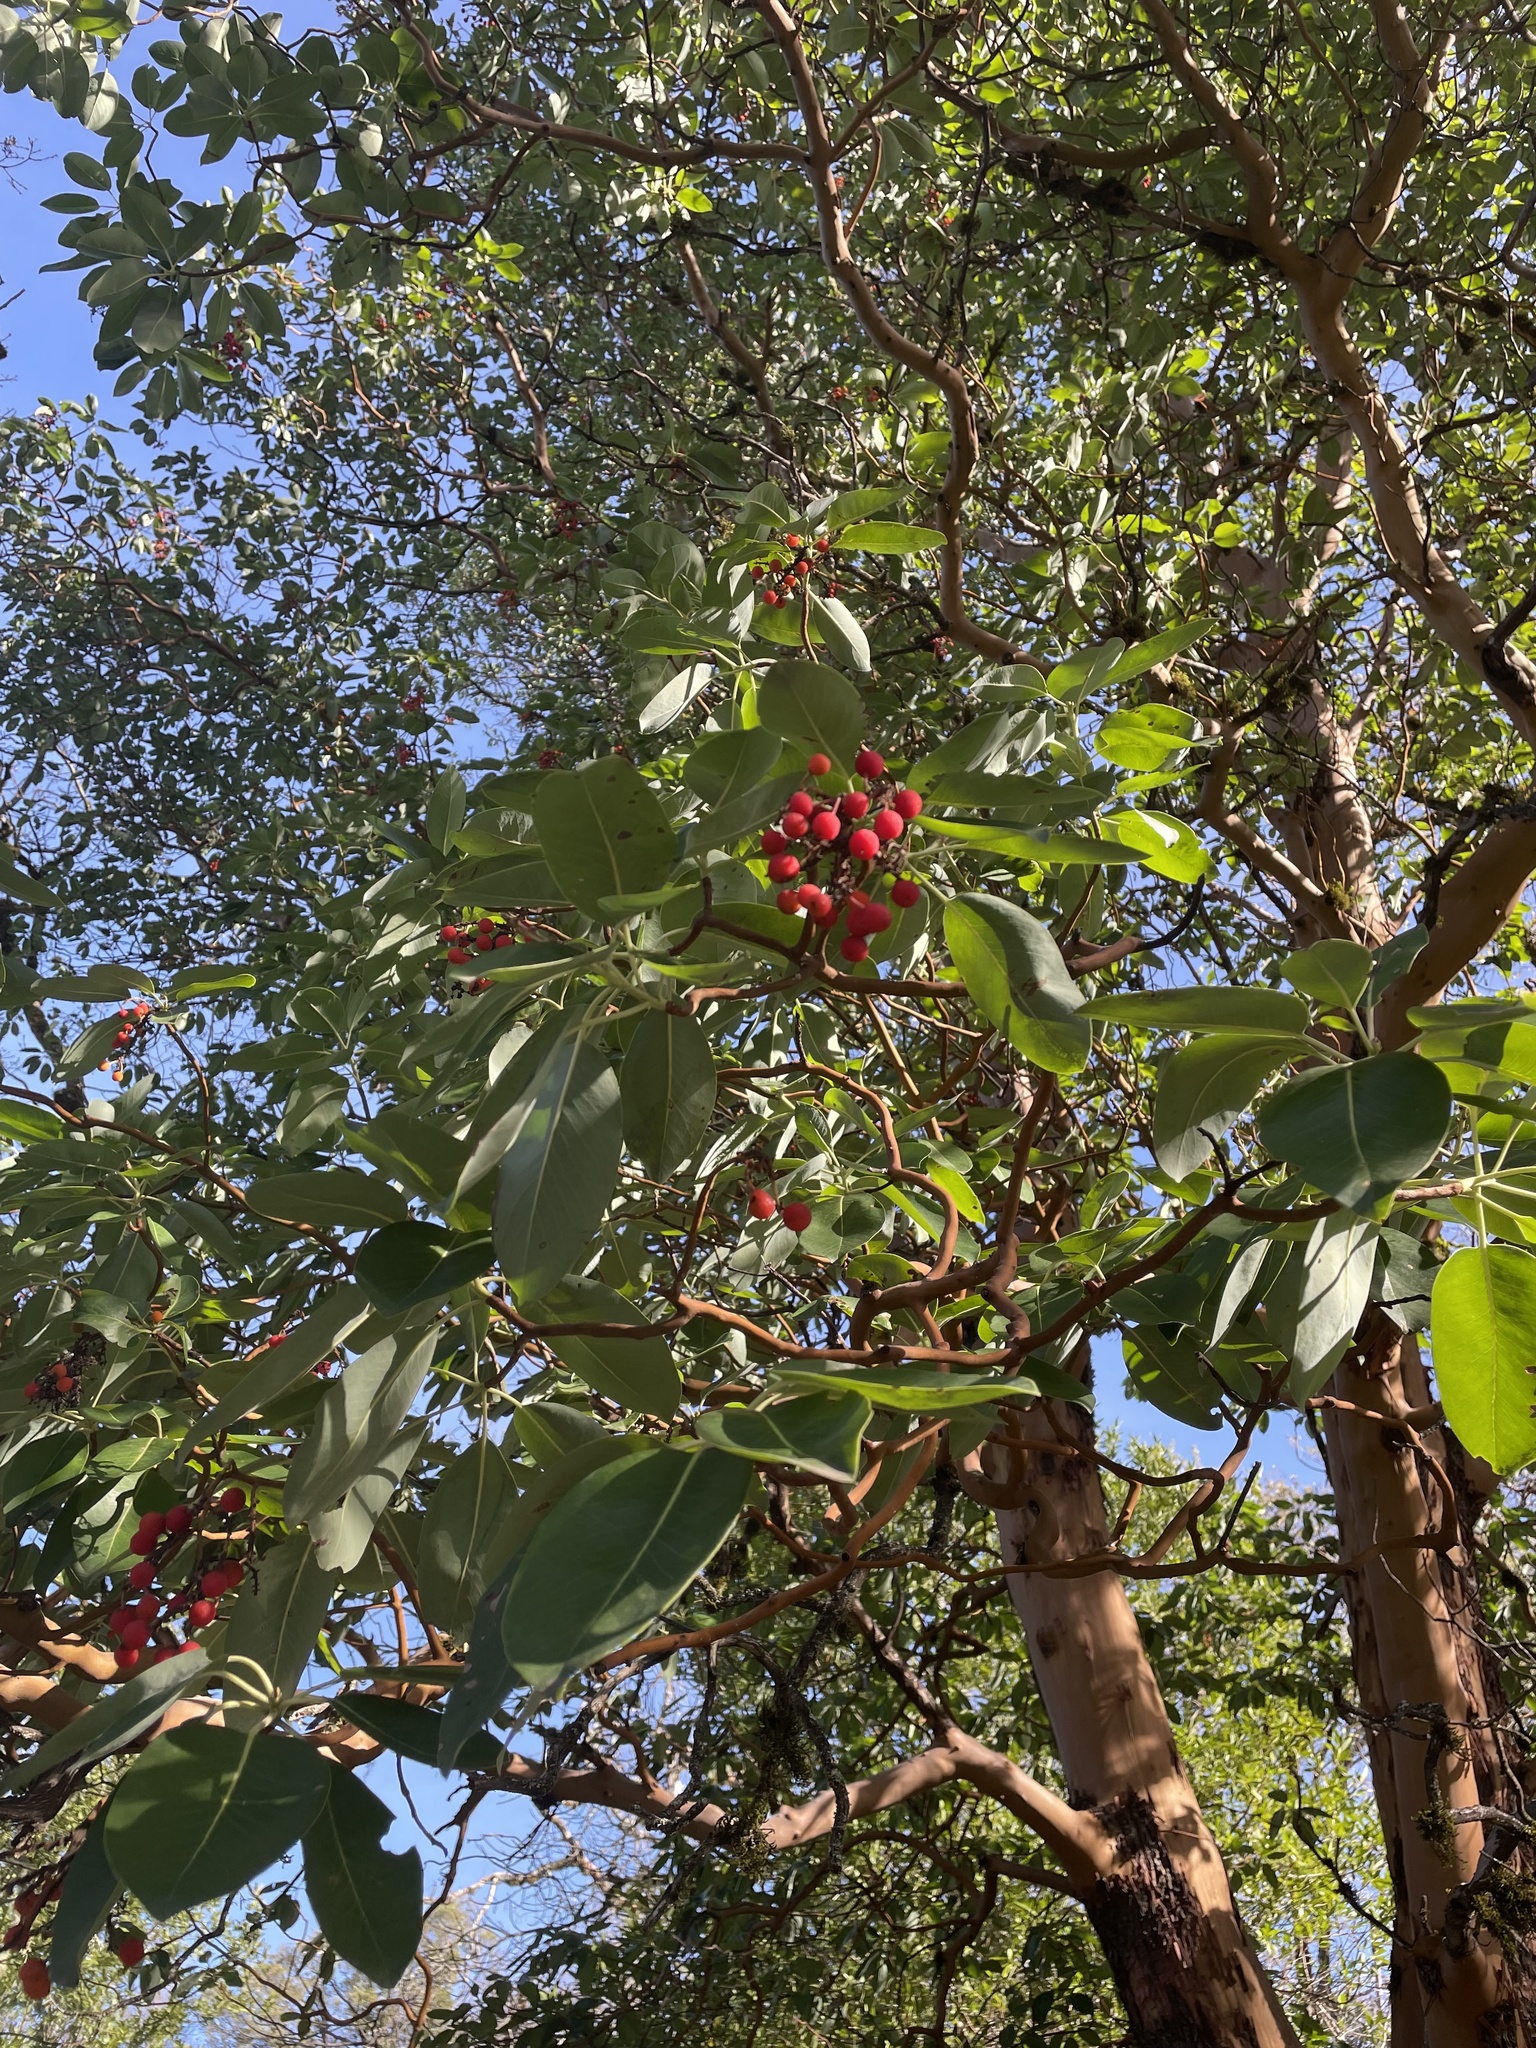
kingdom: Plantae
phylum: Tracheophyta
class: Magnoliopsida
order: Ericales
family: Ericaceae
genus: Arbutus
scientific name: Arbutus menziesii
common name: Pacific madrone
